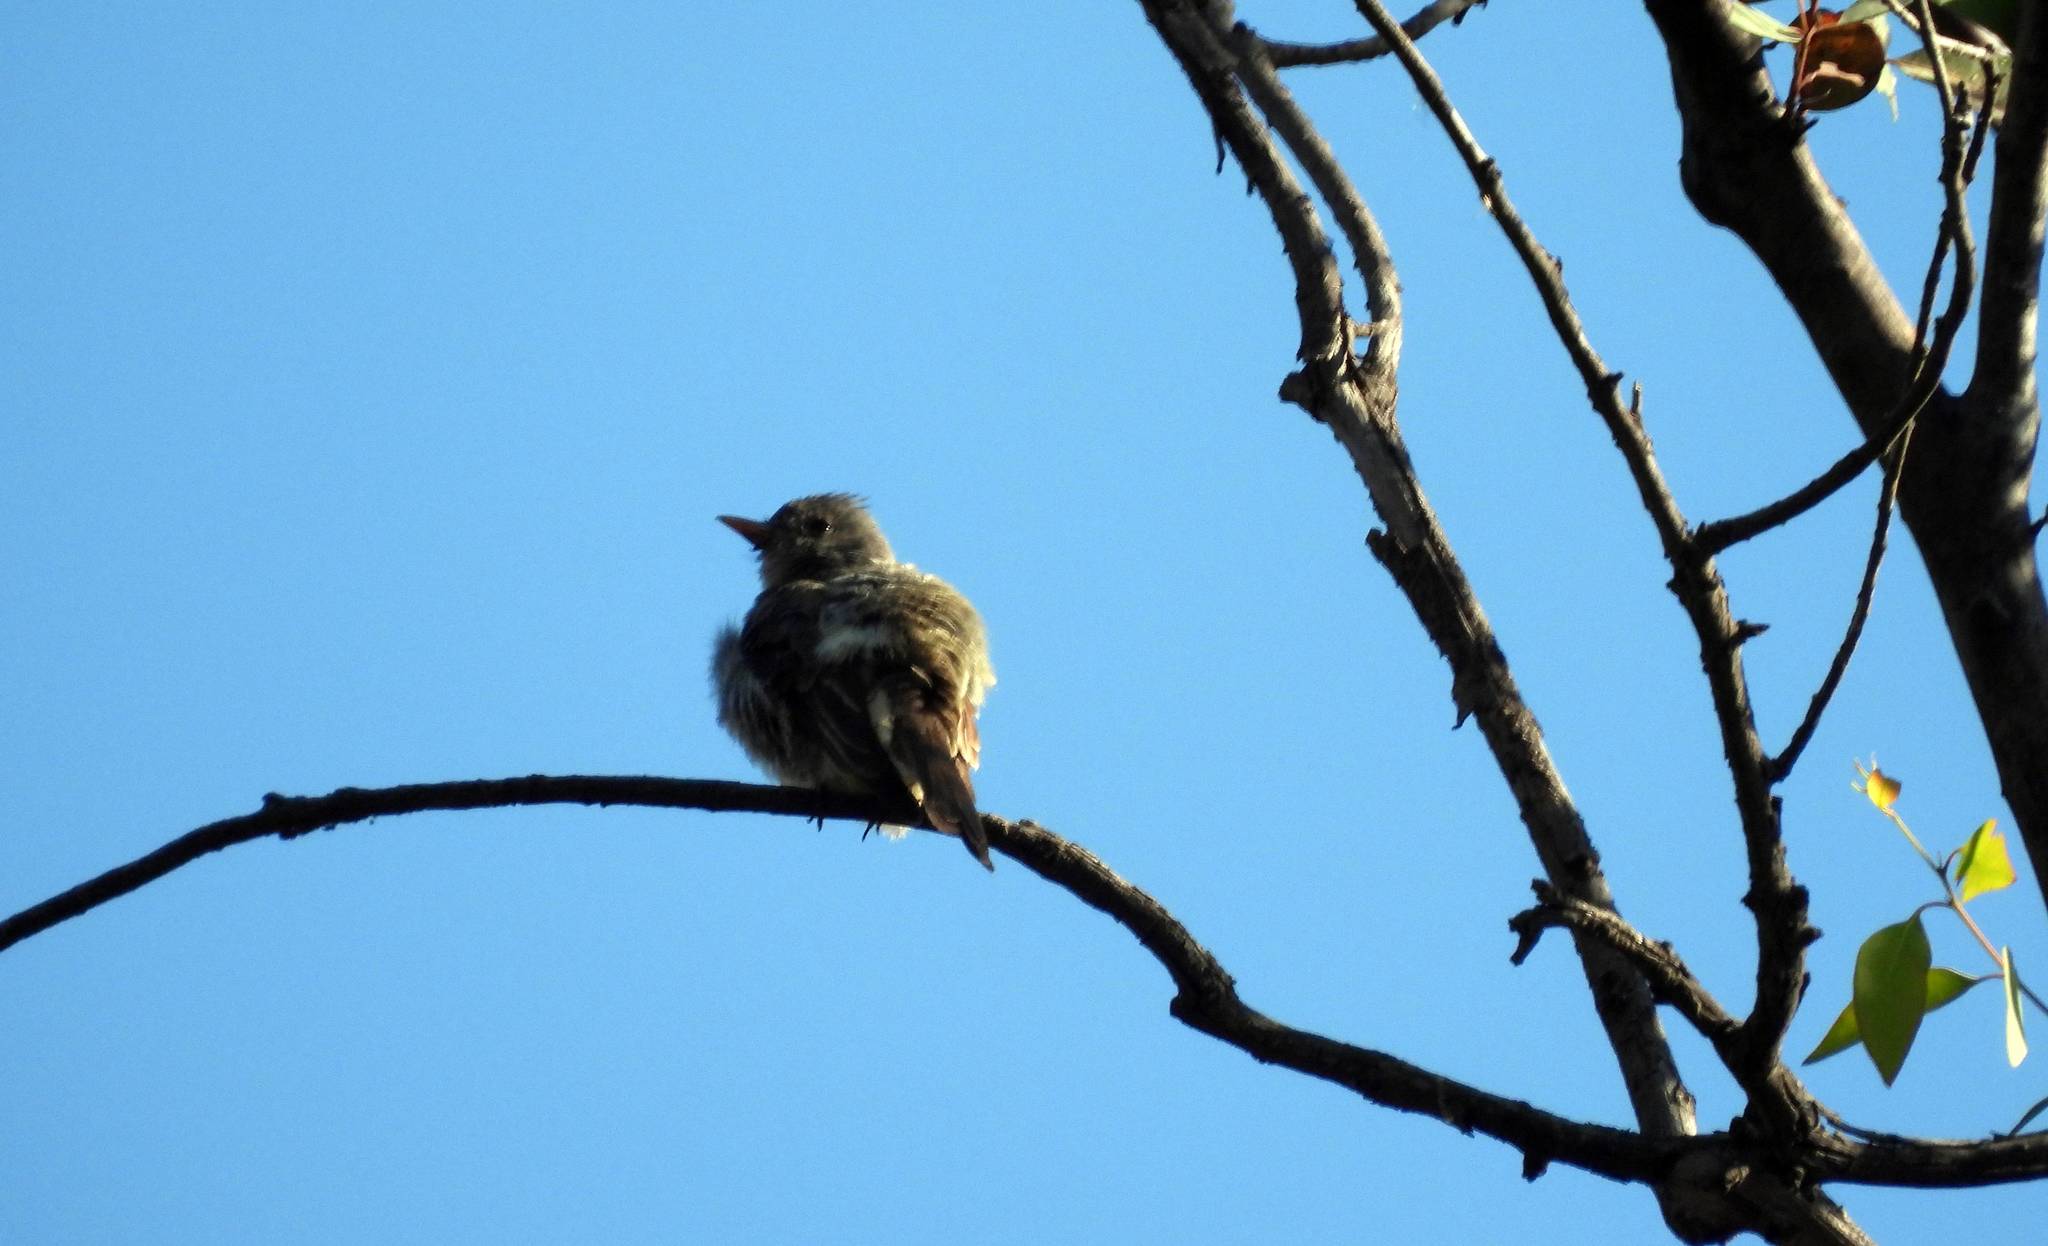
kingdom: Animalia
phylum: Chordata
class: Aves
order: Passeriformes
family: Tyrannidae
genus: Contopus
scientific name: Contopus pertinax
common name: Greater pewee
